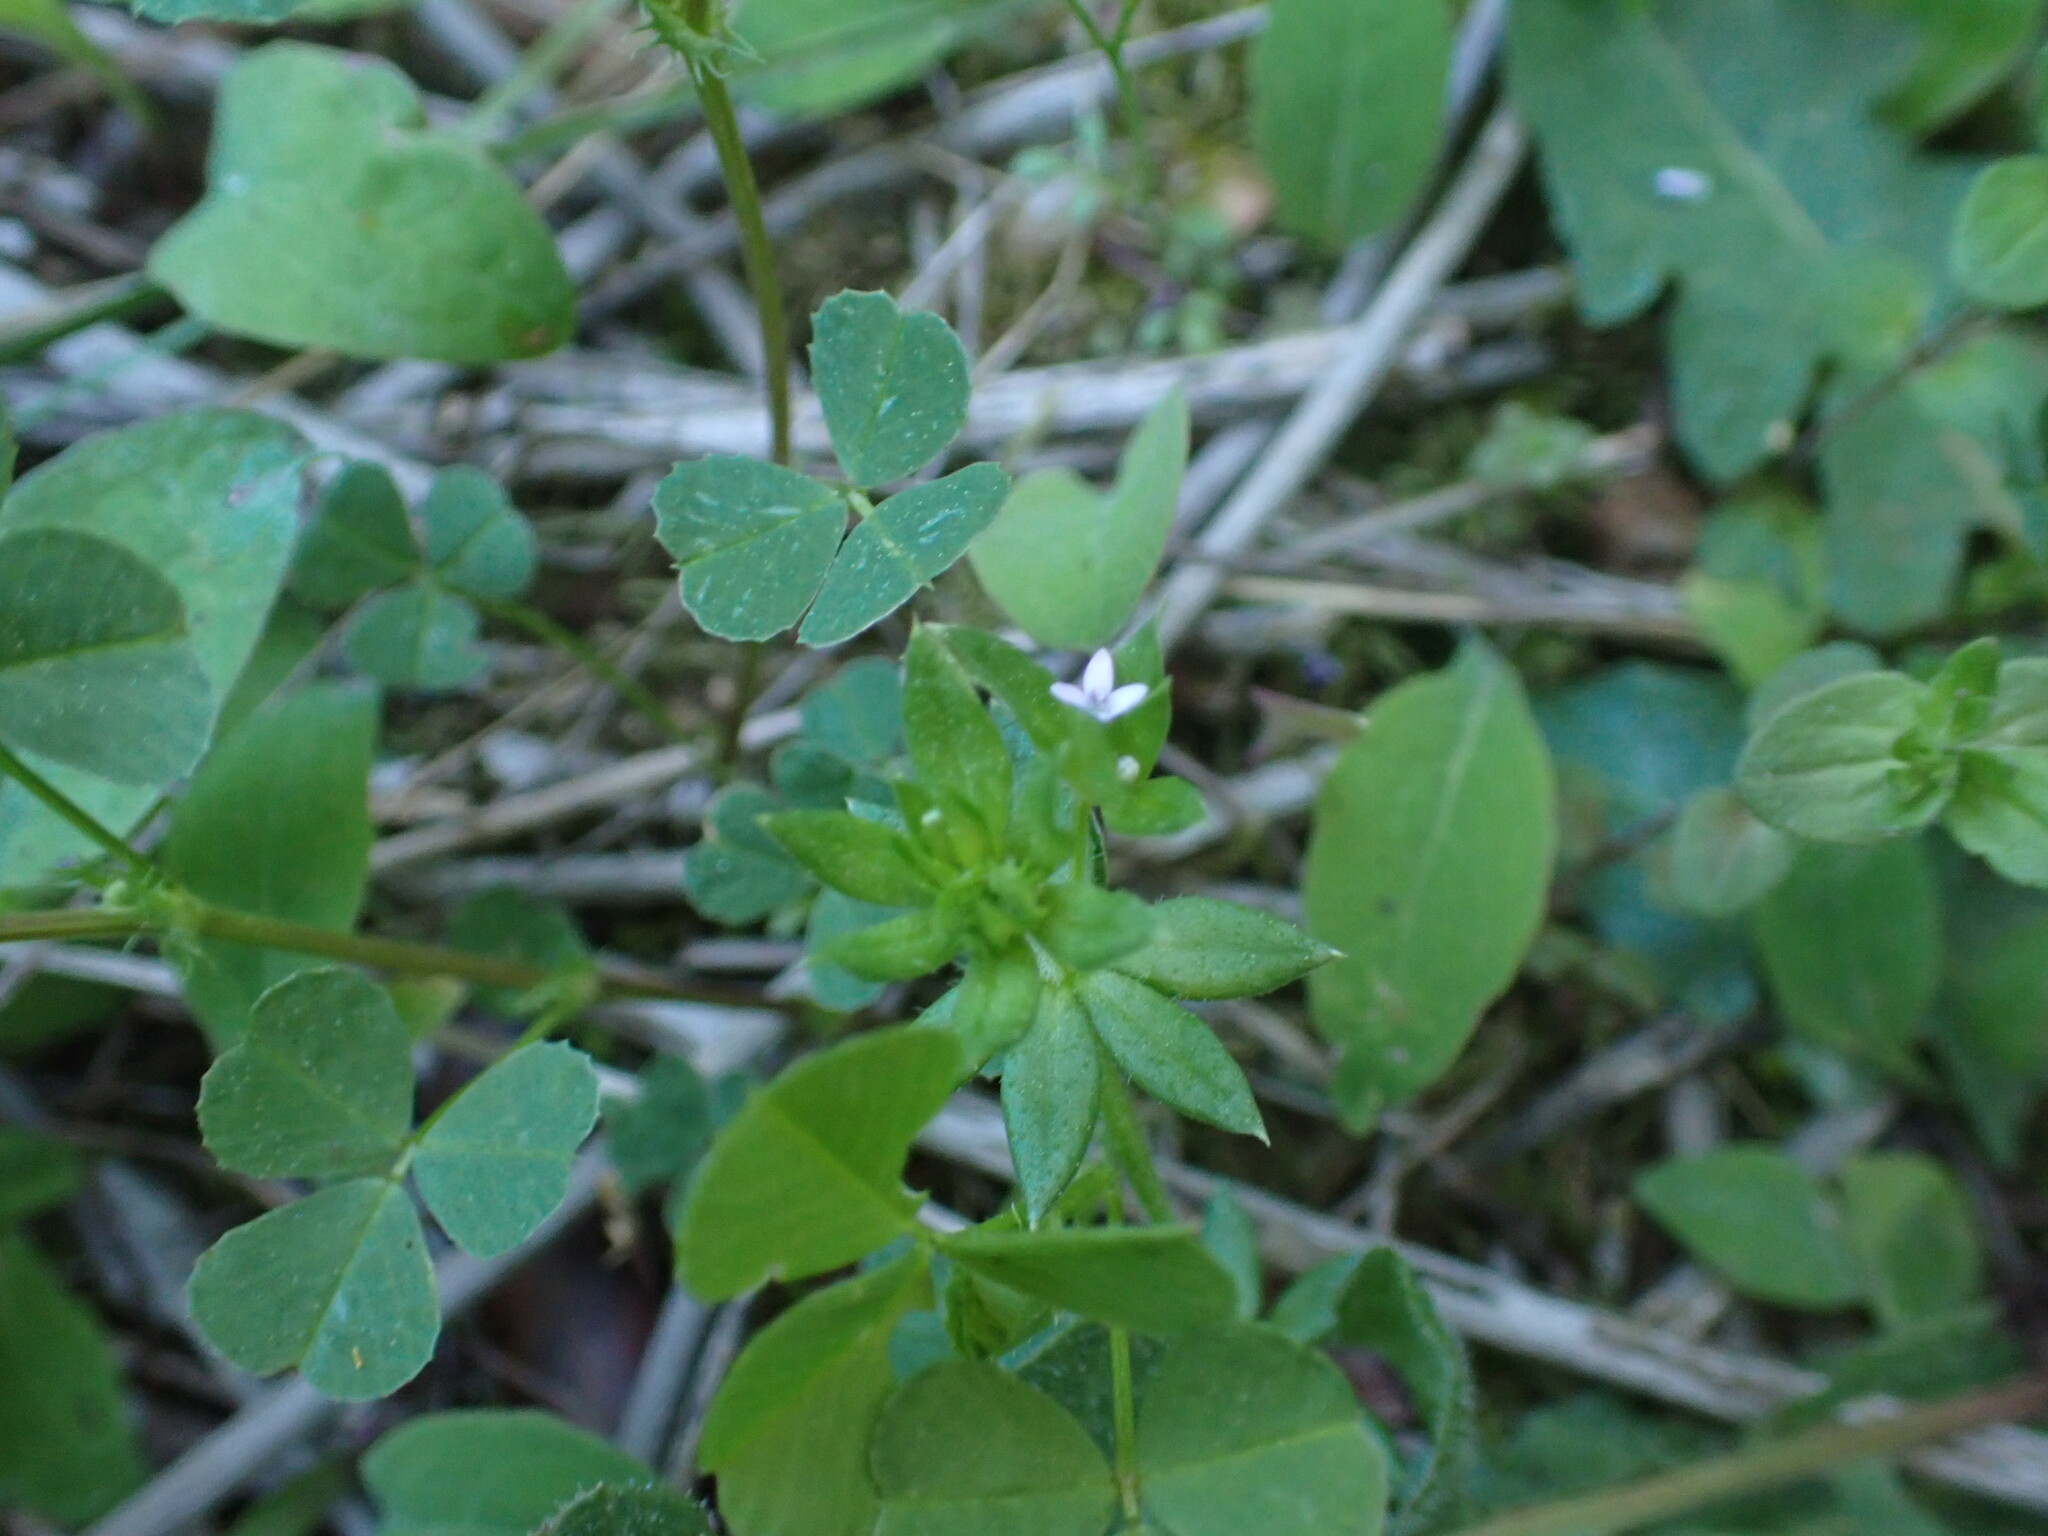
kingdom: Plantae
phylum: Tracheophyta
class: Magnoliopsida
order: Gentianales
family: Rubiaceae
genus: Sherardia
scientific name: Sherardia arvensis
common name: Field madder
